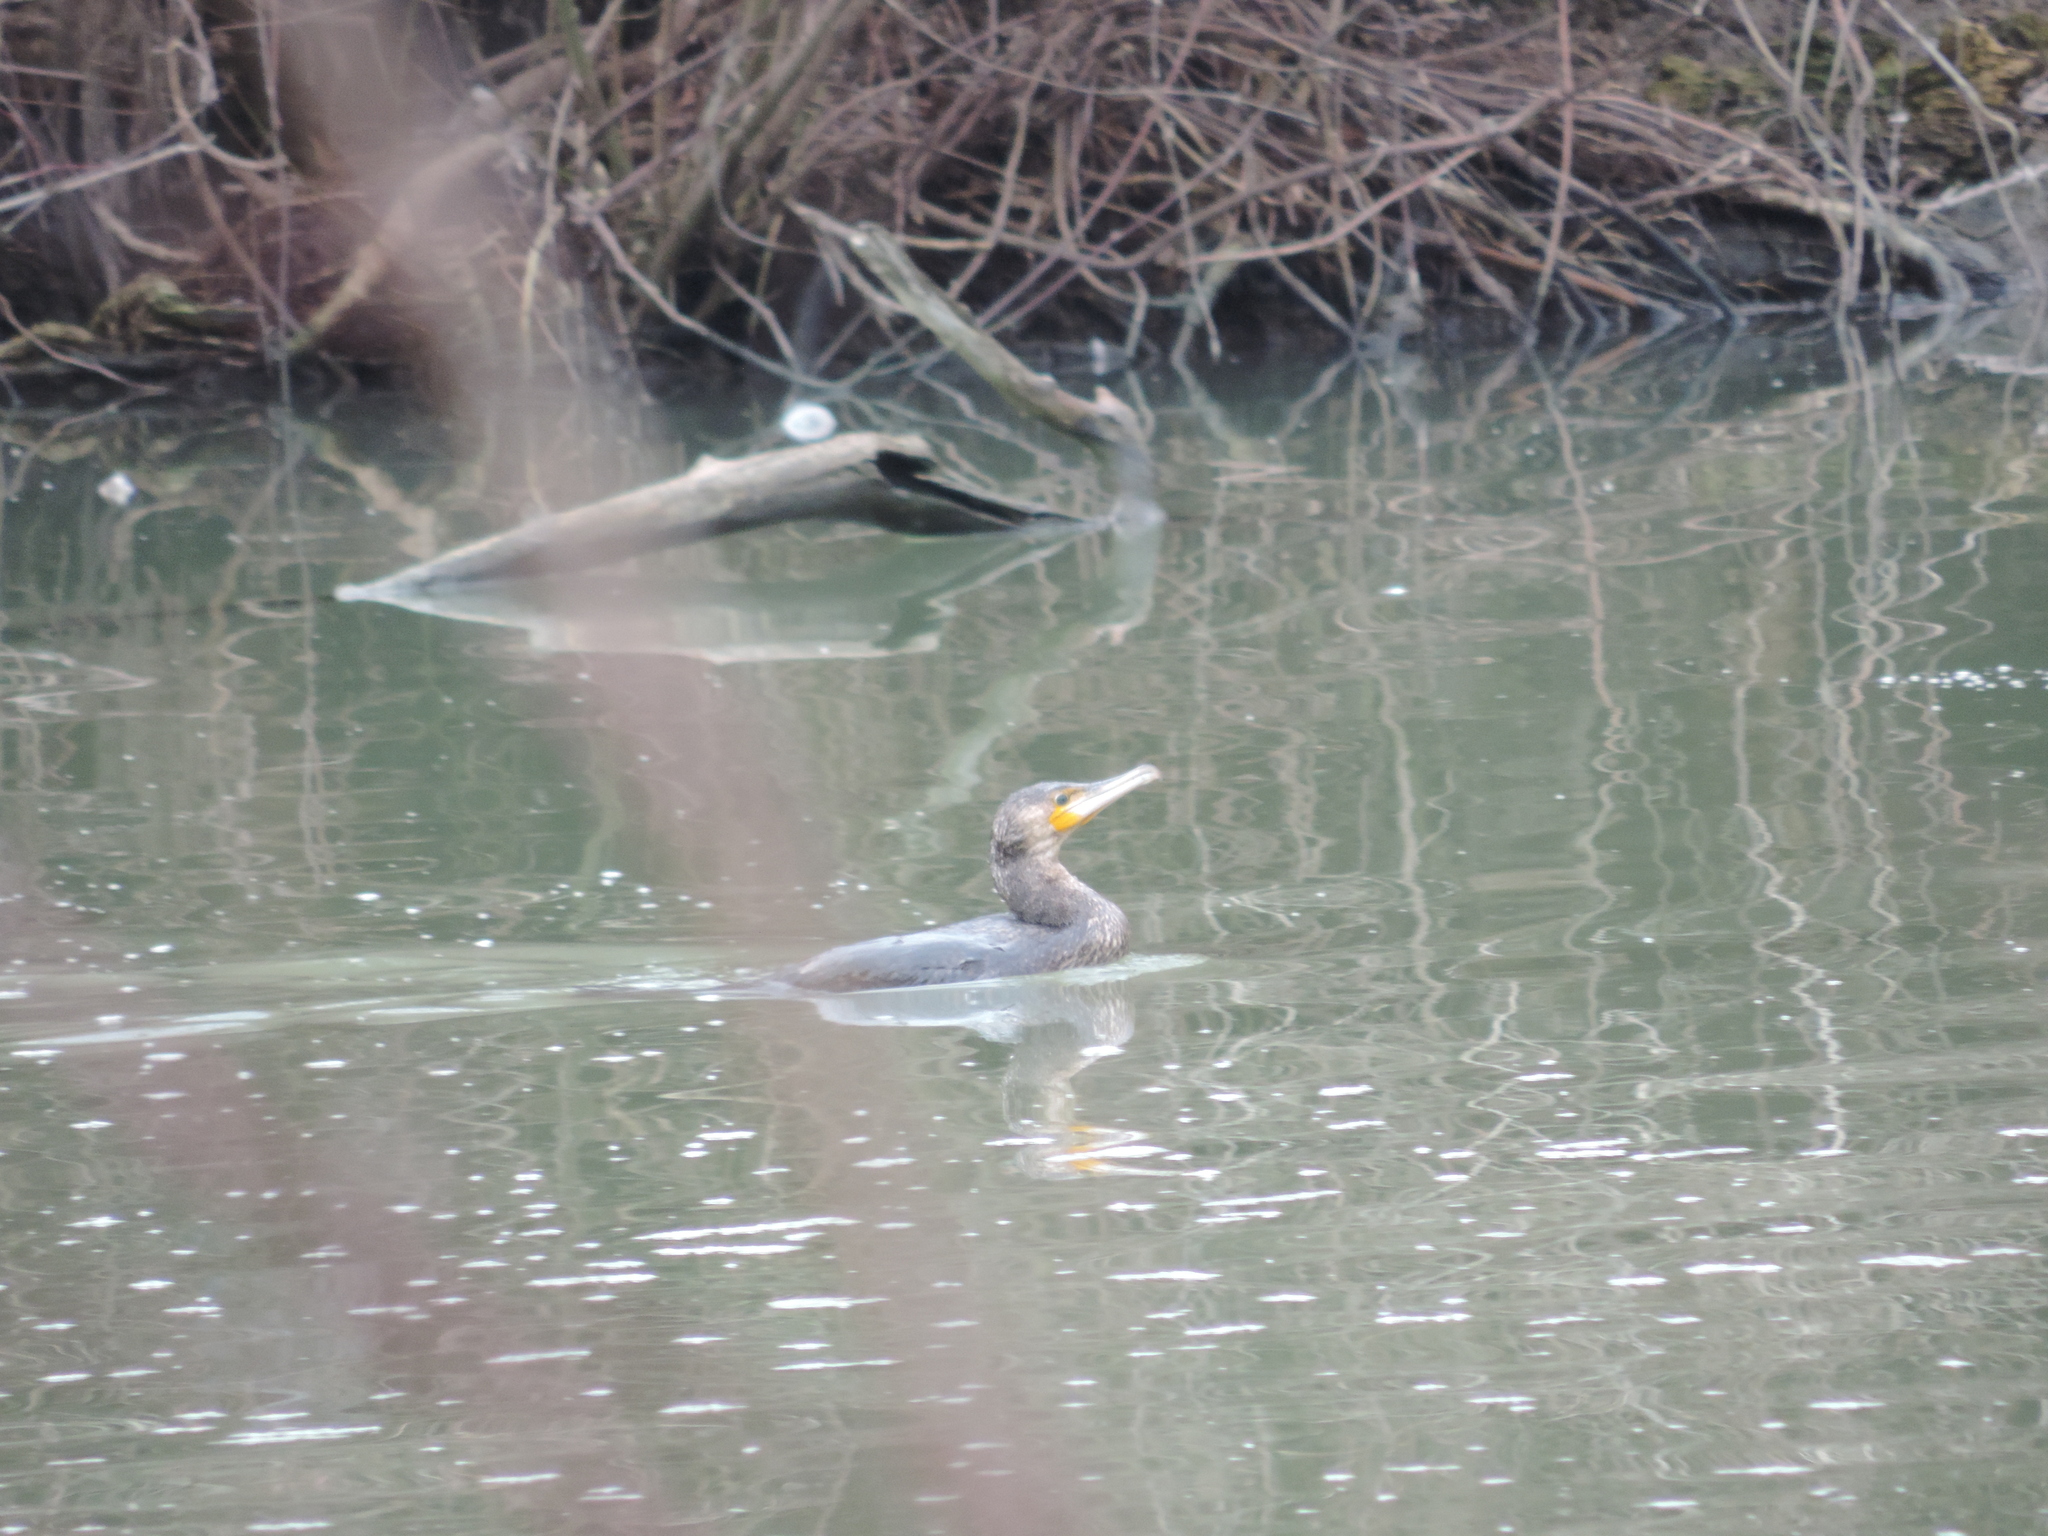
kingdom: Animalia
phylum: Chordata
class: Aves
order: Suliformes
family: Phalacrocoracidae
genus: Phalacrocorax
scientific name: Phalacrocorax carbo
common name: Great cormorant
